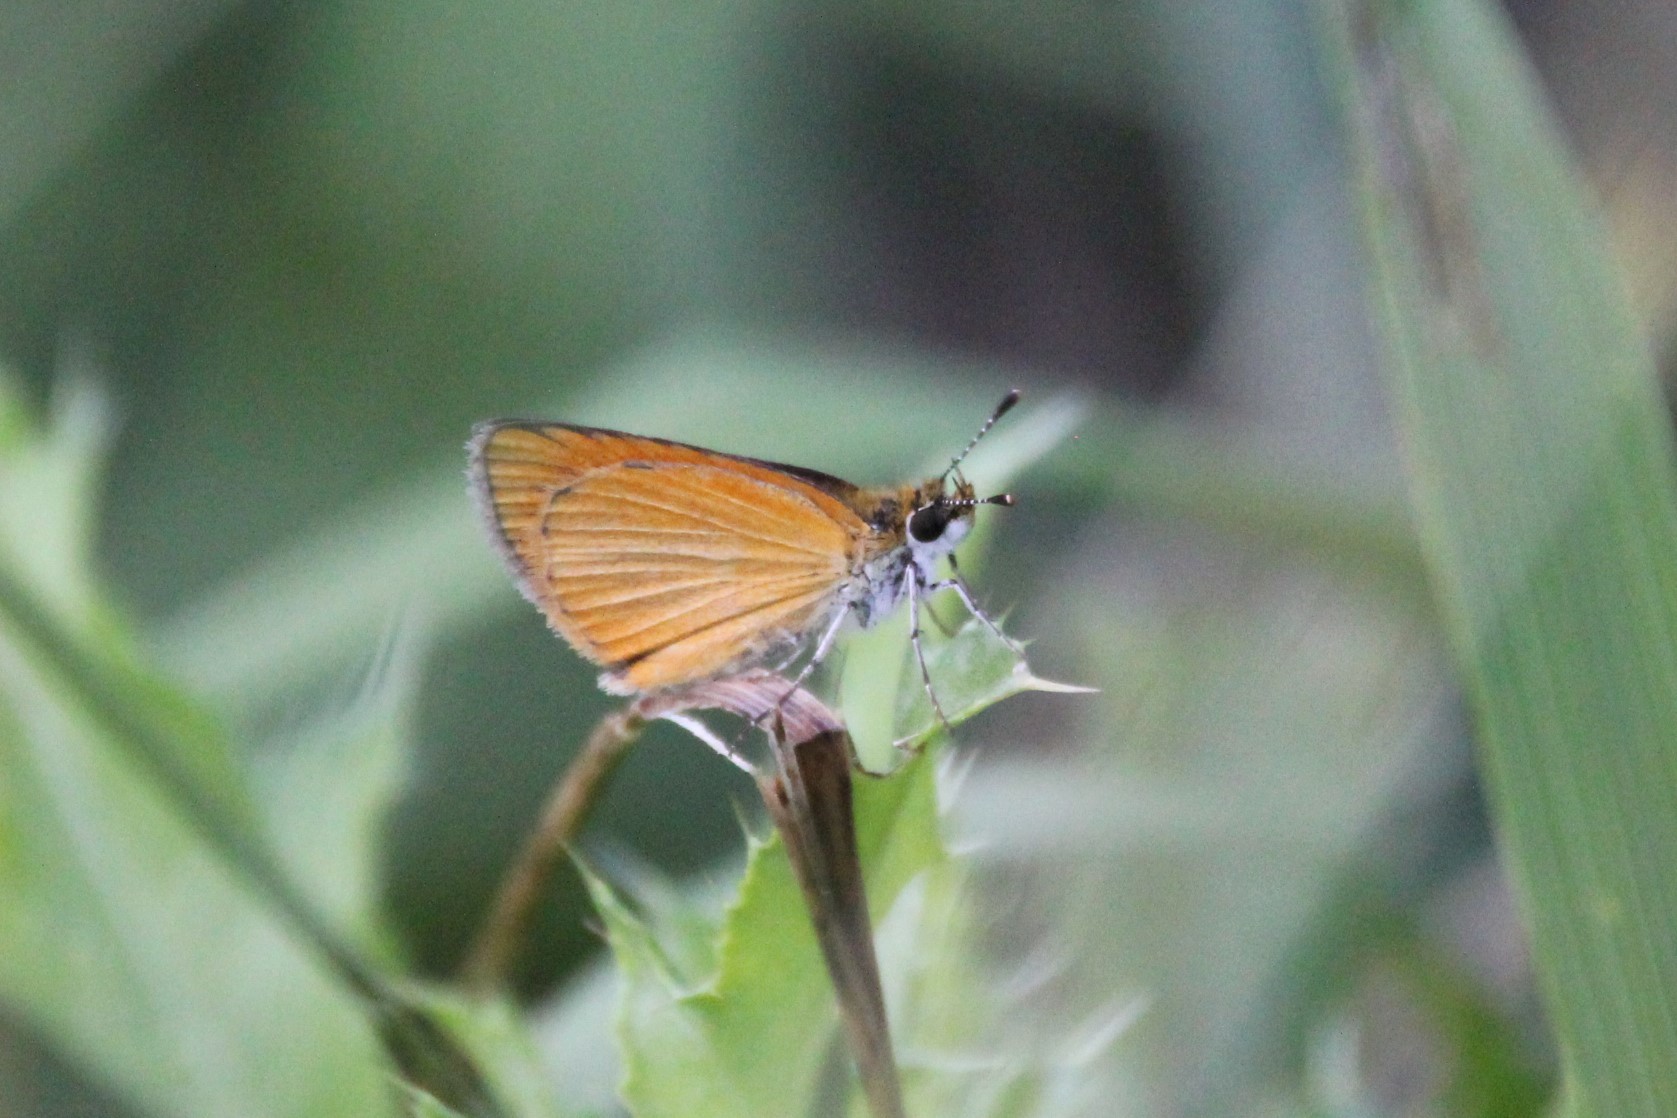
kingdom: Animalia
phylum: Arthropoda
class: Insecta
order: Lepidoptera
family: Hesperiidae
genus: Ancyloxypha
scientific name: Ancyloxypha numitor
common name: Least skipper
